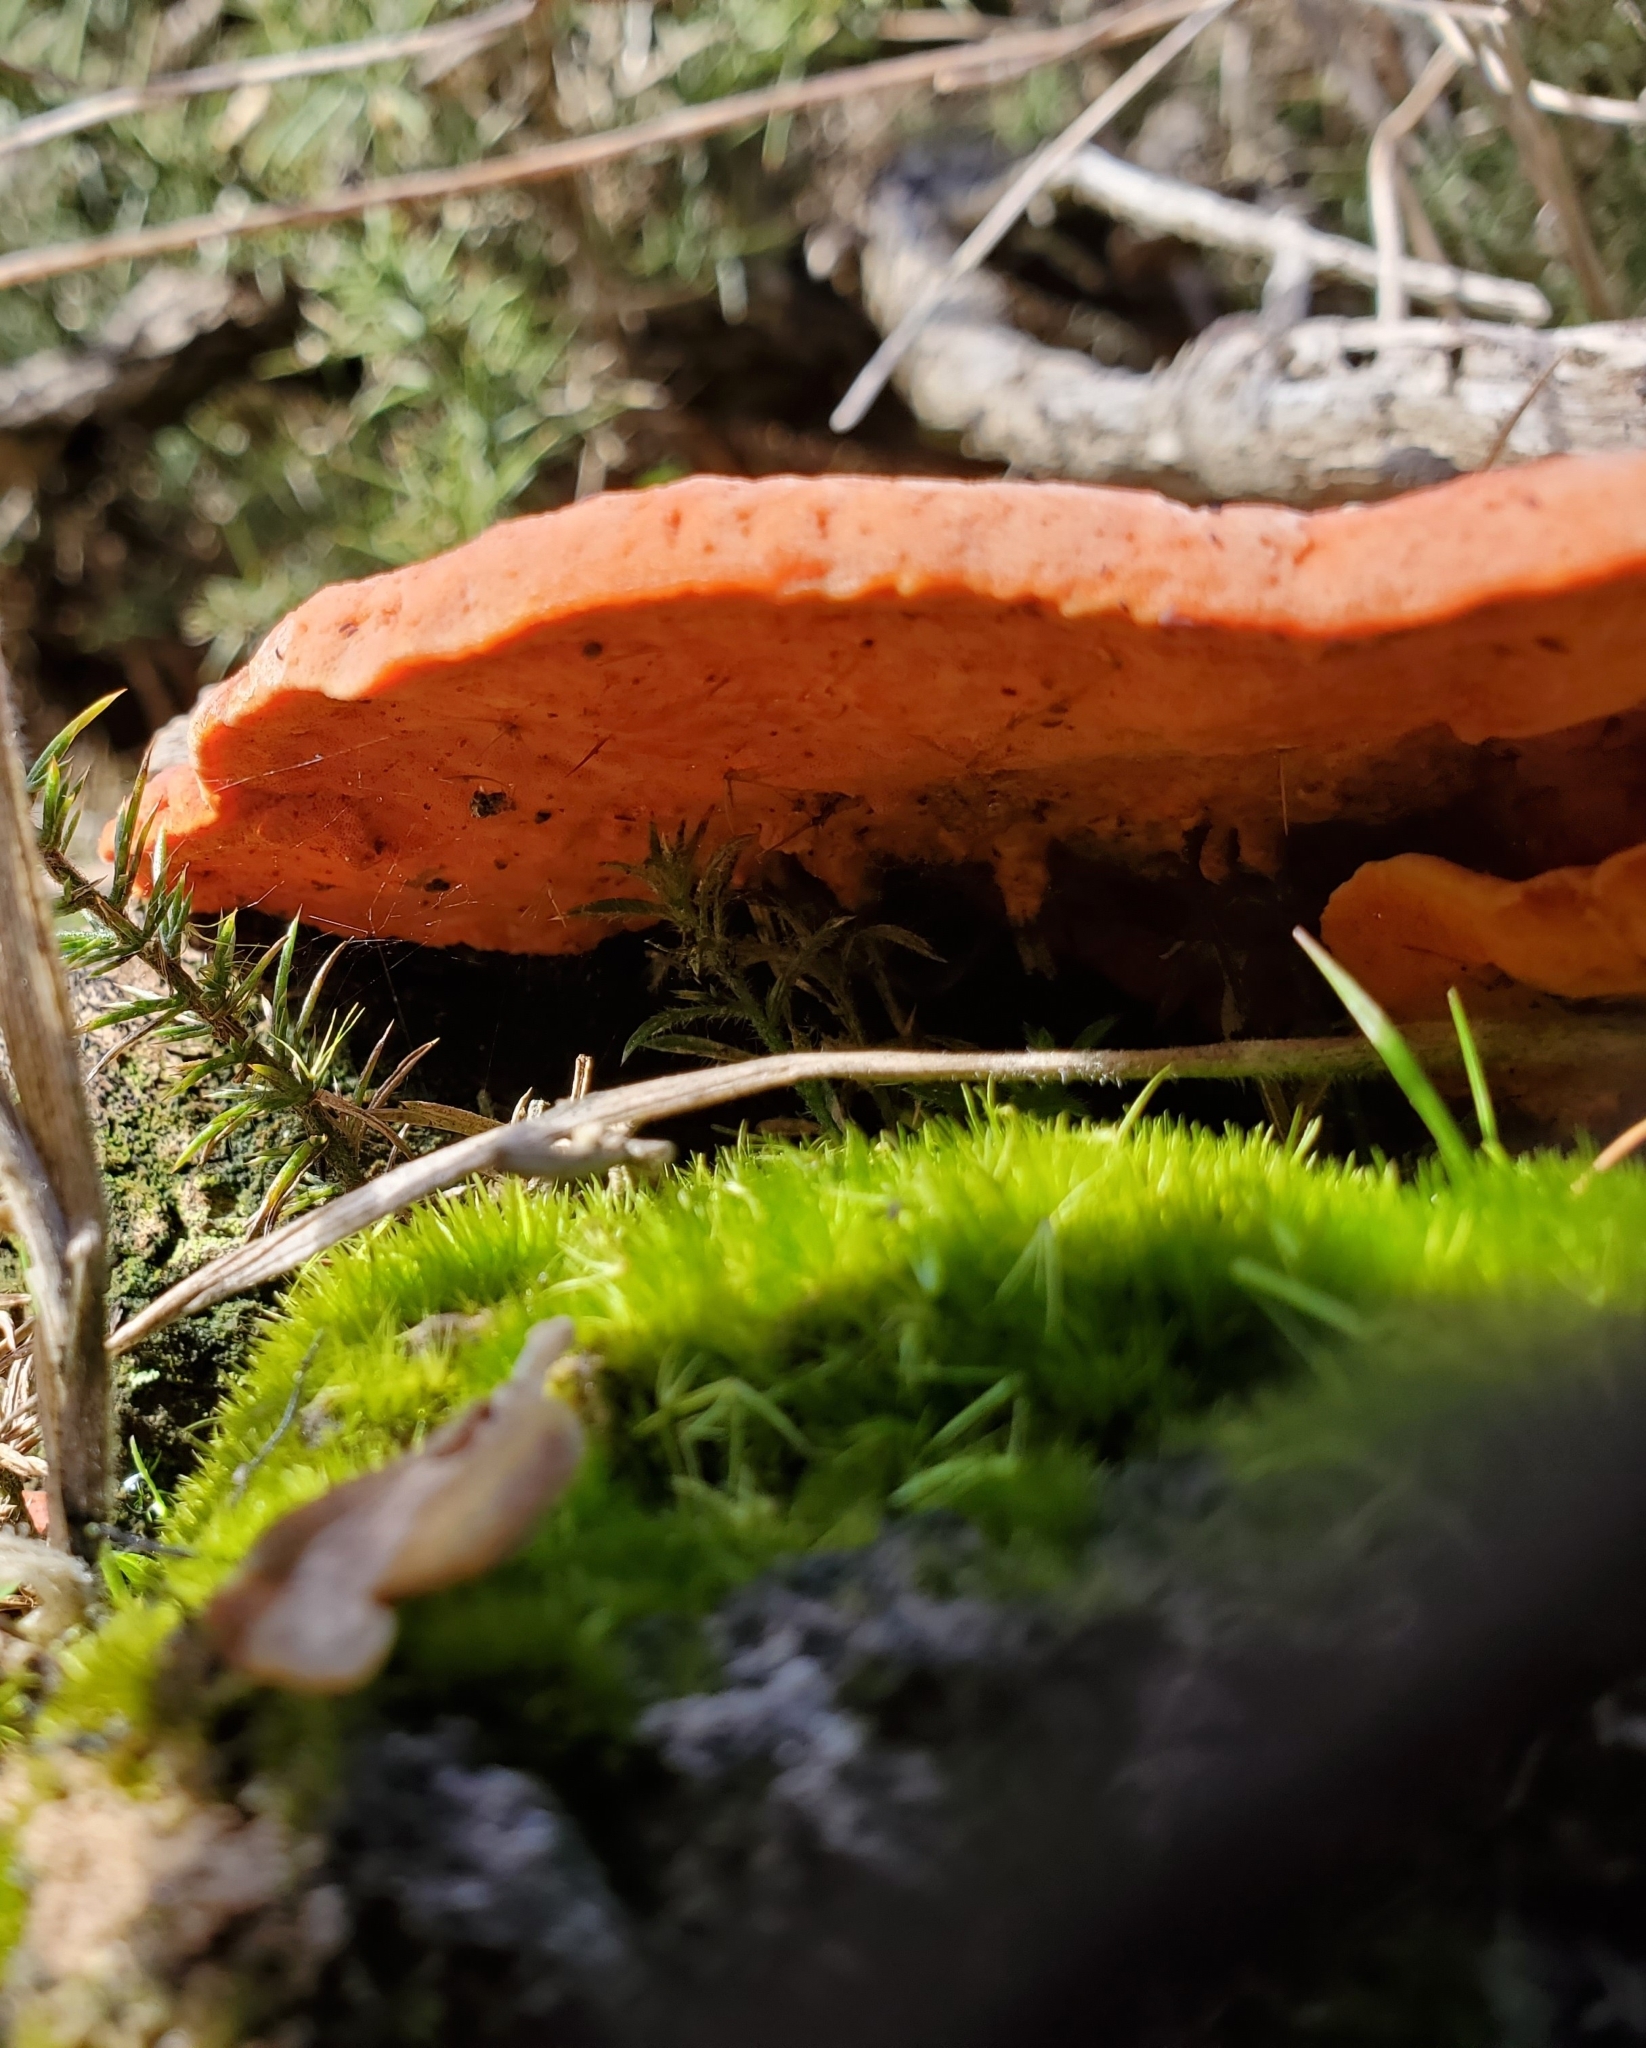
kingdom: Fungi
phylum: Basidiomycota
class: Agaricomycetes
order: Polyporales
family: Polyporaceae
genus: Trametes
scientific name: Trametes coccinea
